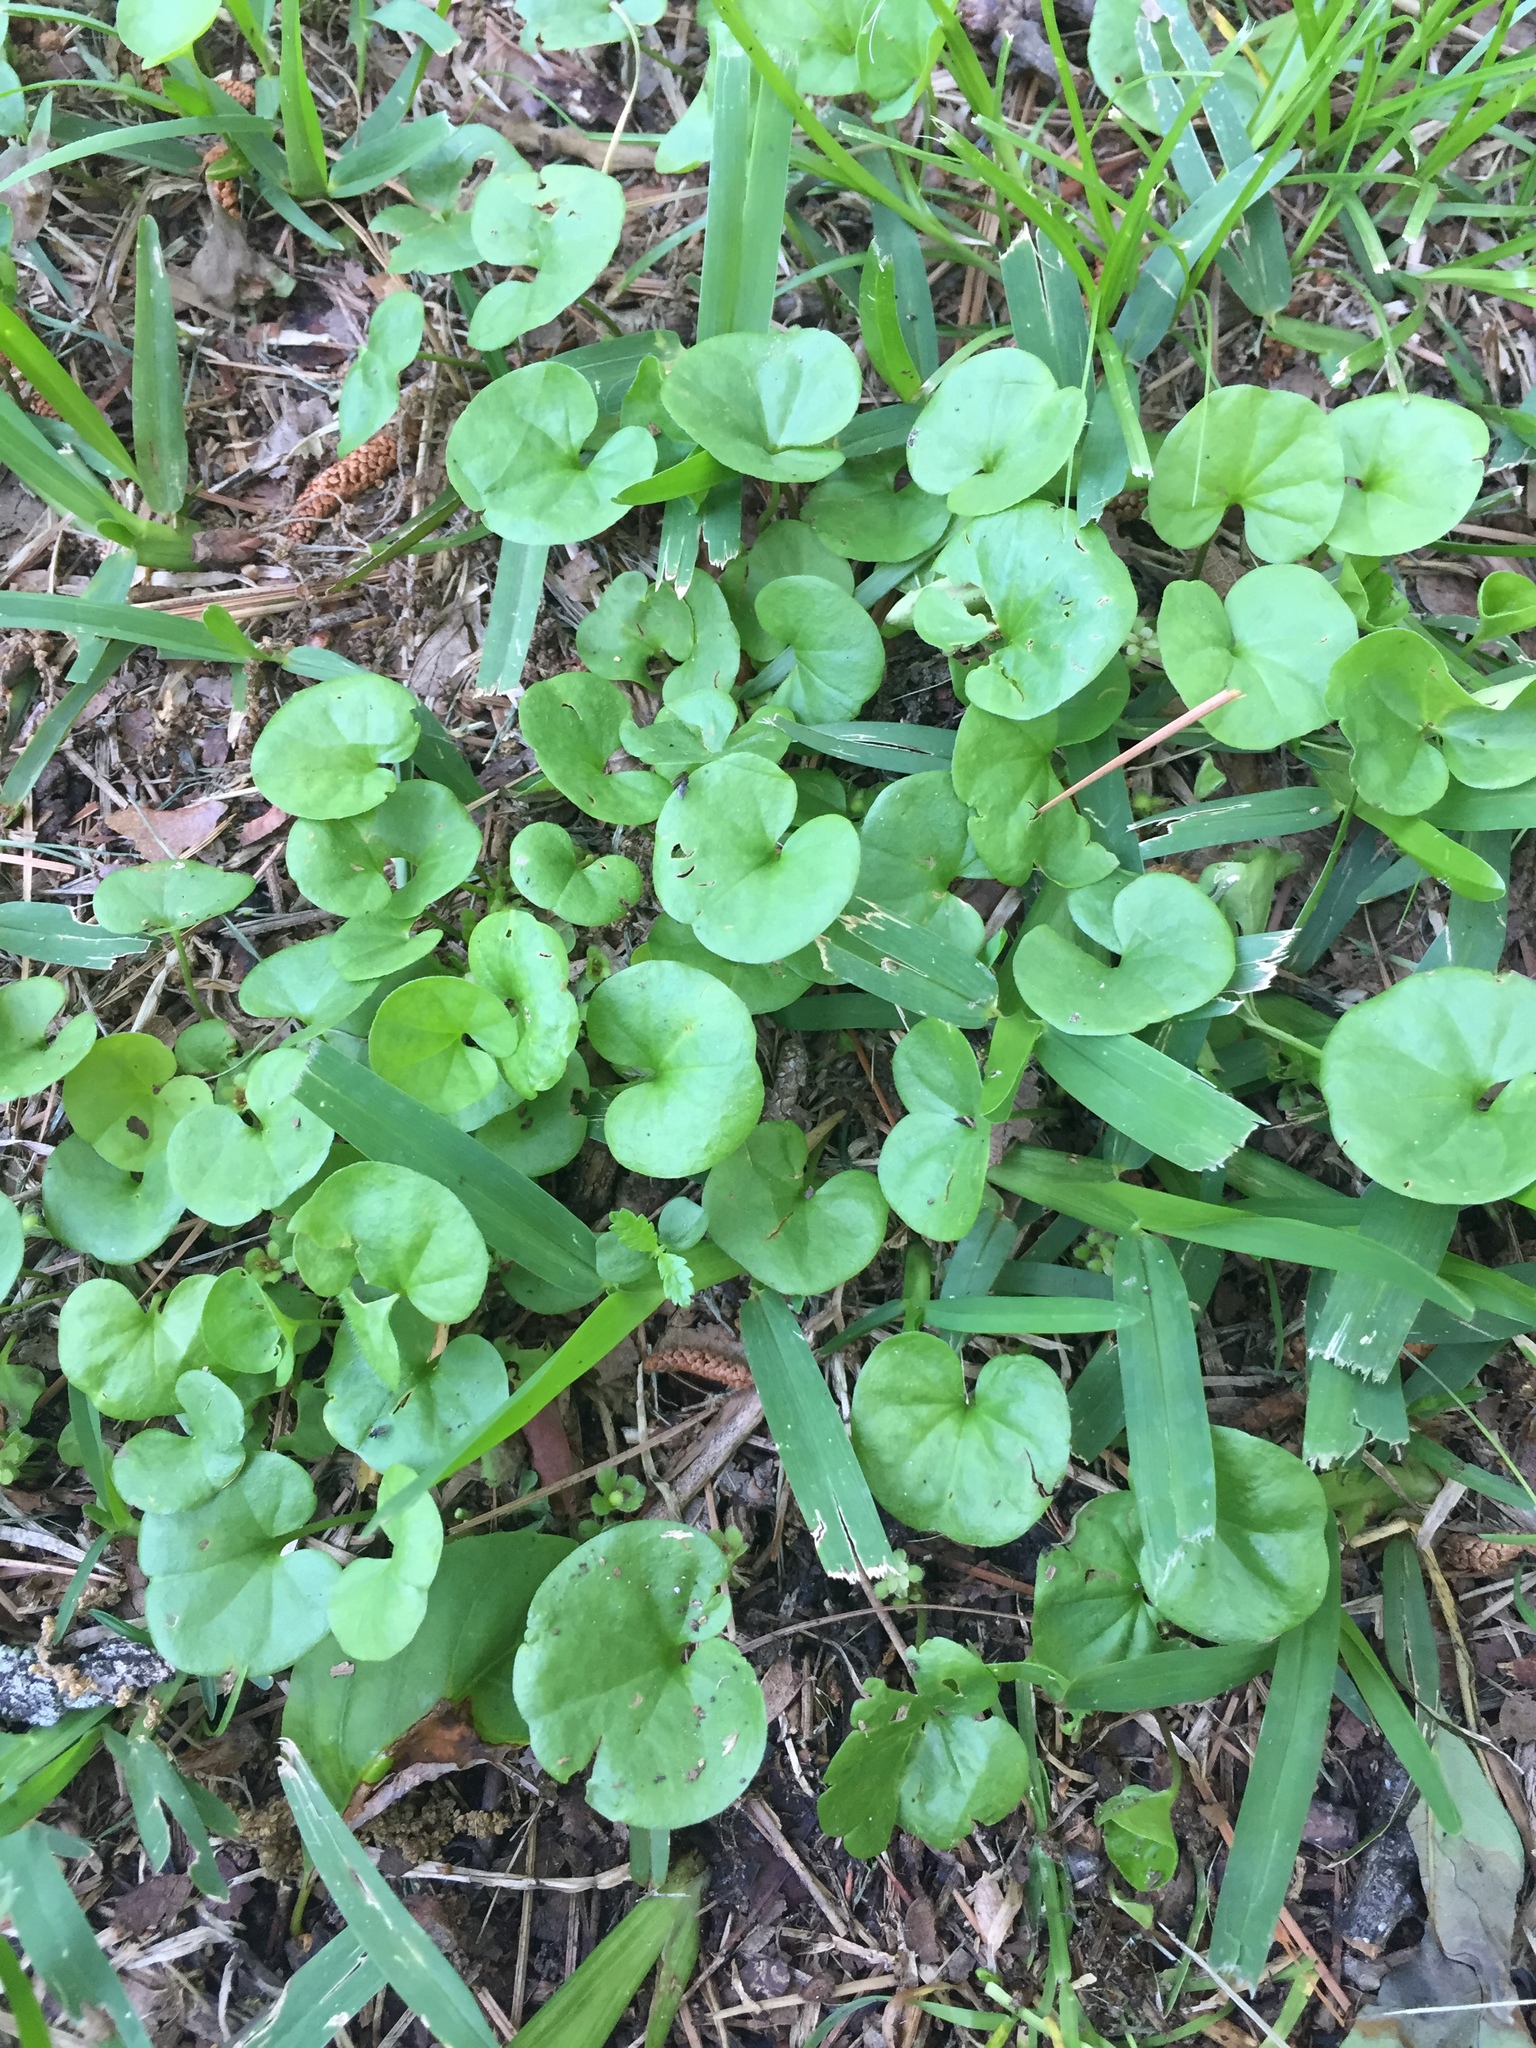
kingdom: Plantae
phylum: Tracheophyta
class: Magnoliopsida
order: Solanales
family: Convolvulaceae
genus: Dichondra
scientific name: Dichondra carolinensis
